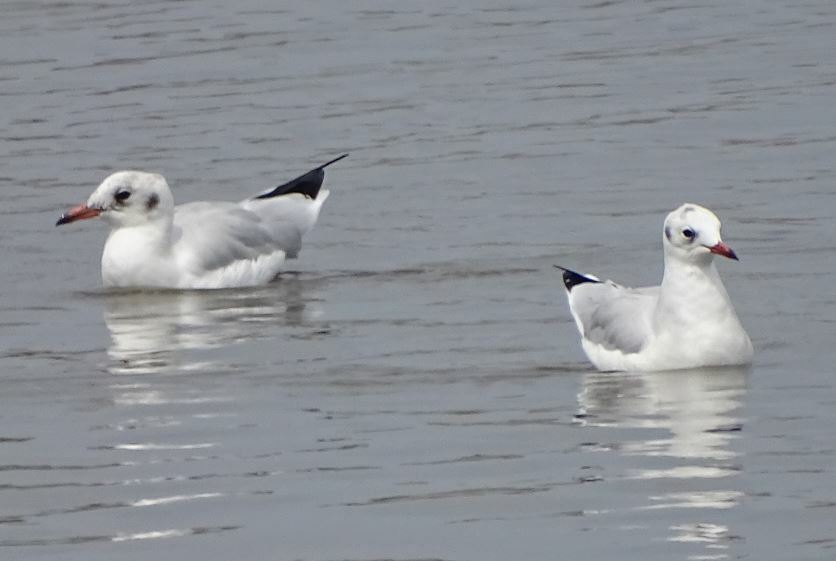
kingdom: Animalia
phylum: Chordata
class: Aves
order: Charadriiformes
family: Laridae
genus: Chroicocephalus
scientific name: Chroicocephalus ridibundus
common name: Black-headed gull
